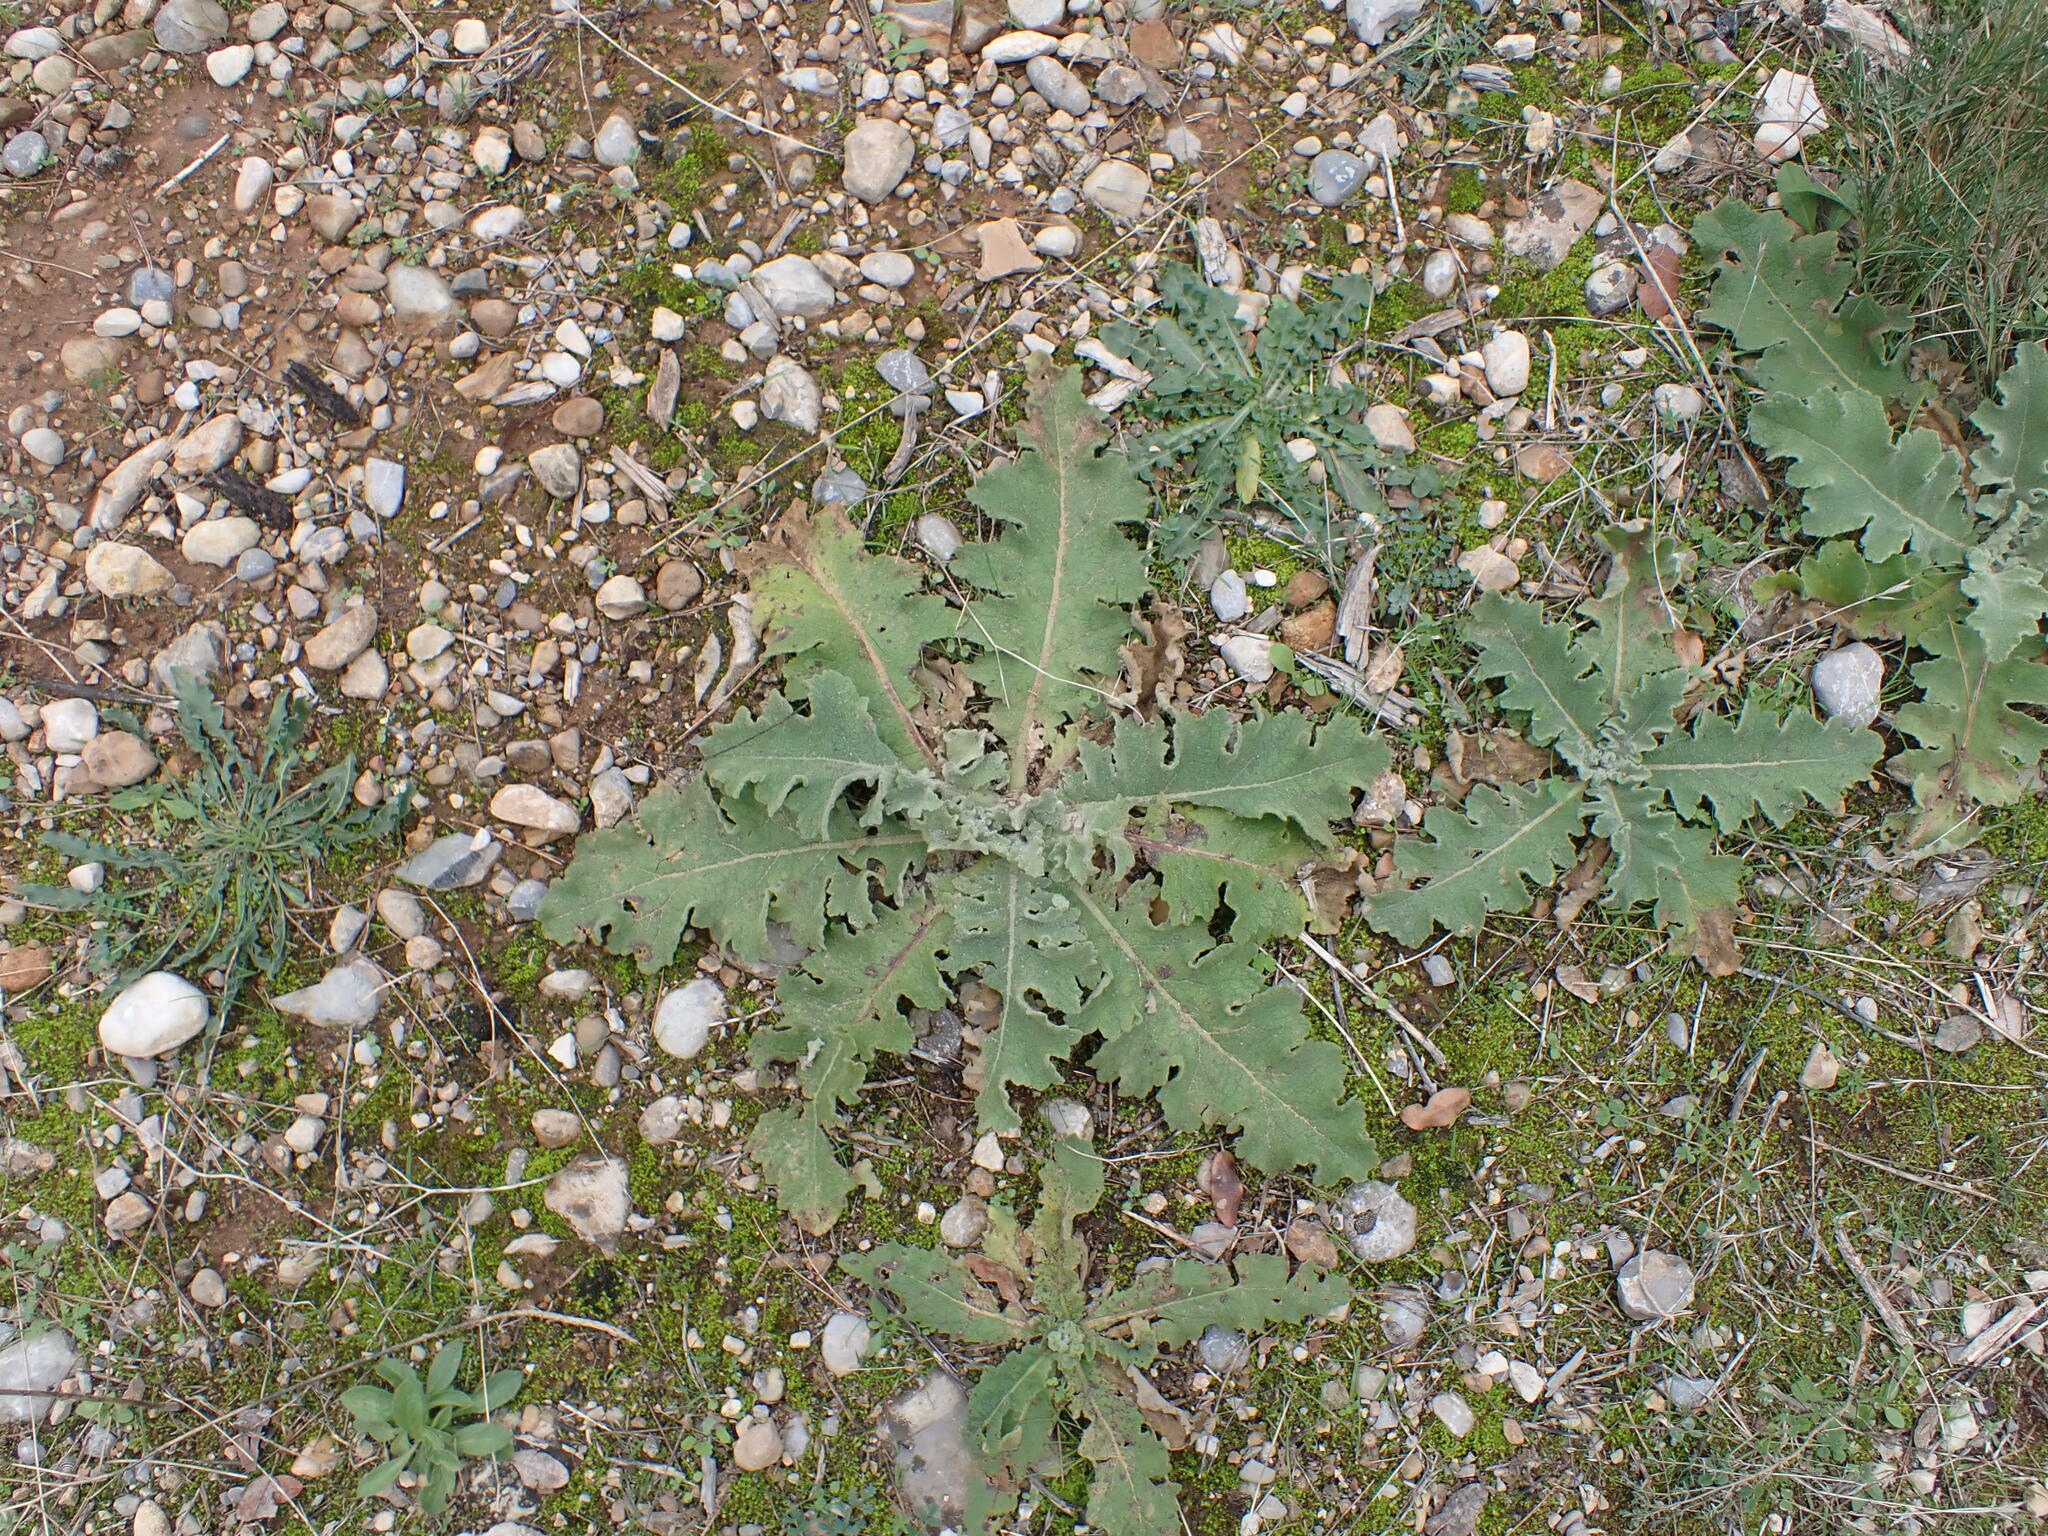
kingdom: Plantae
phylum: Tracheophyta
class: Magnoliopsida
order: Lamiales
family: Scrophulariaceae
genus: Verbascum
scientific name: Verbascum sinuatum
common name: Wavyleaf mullein
